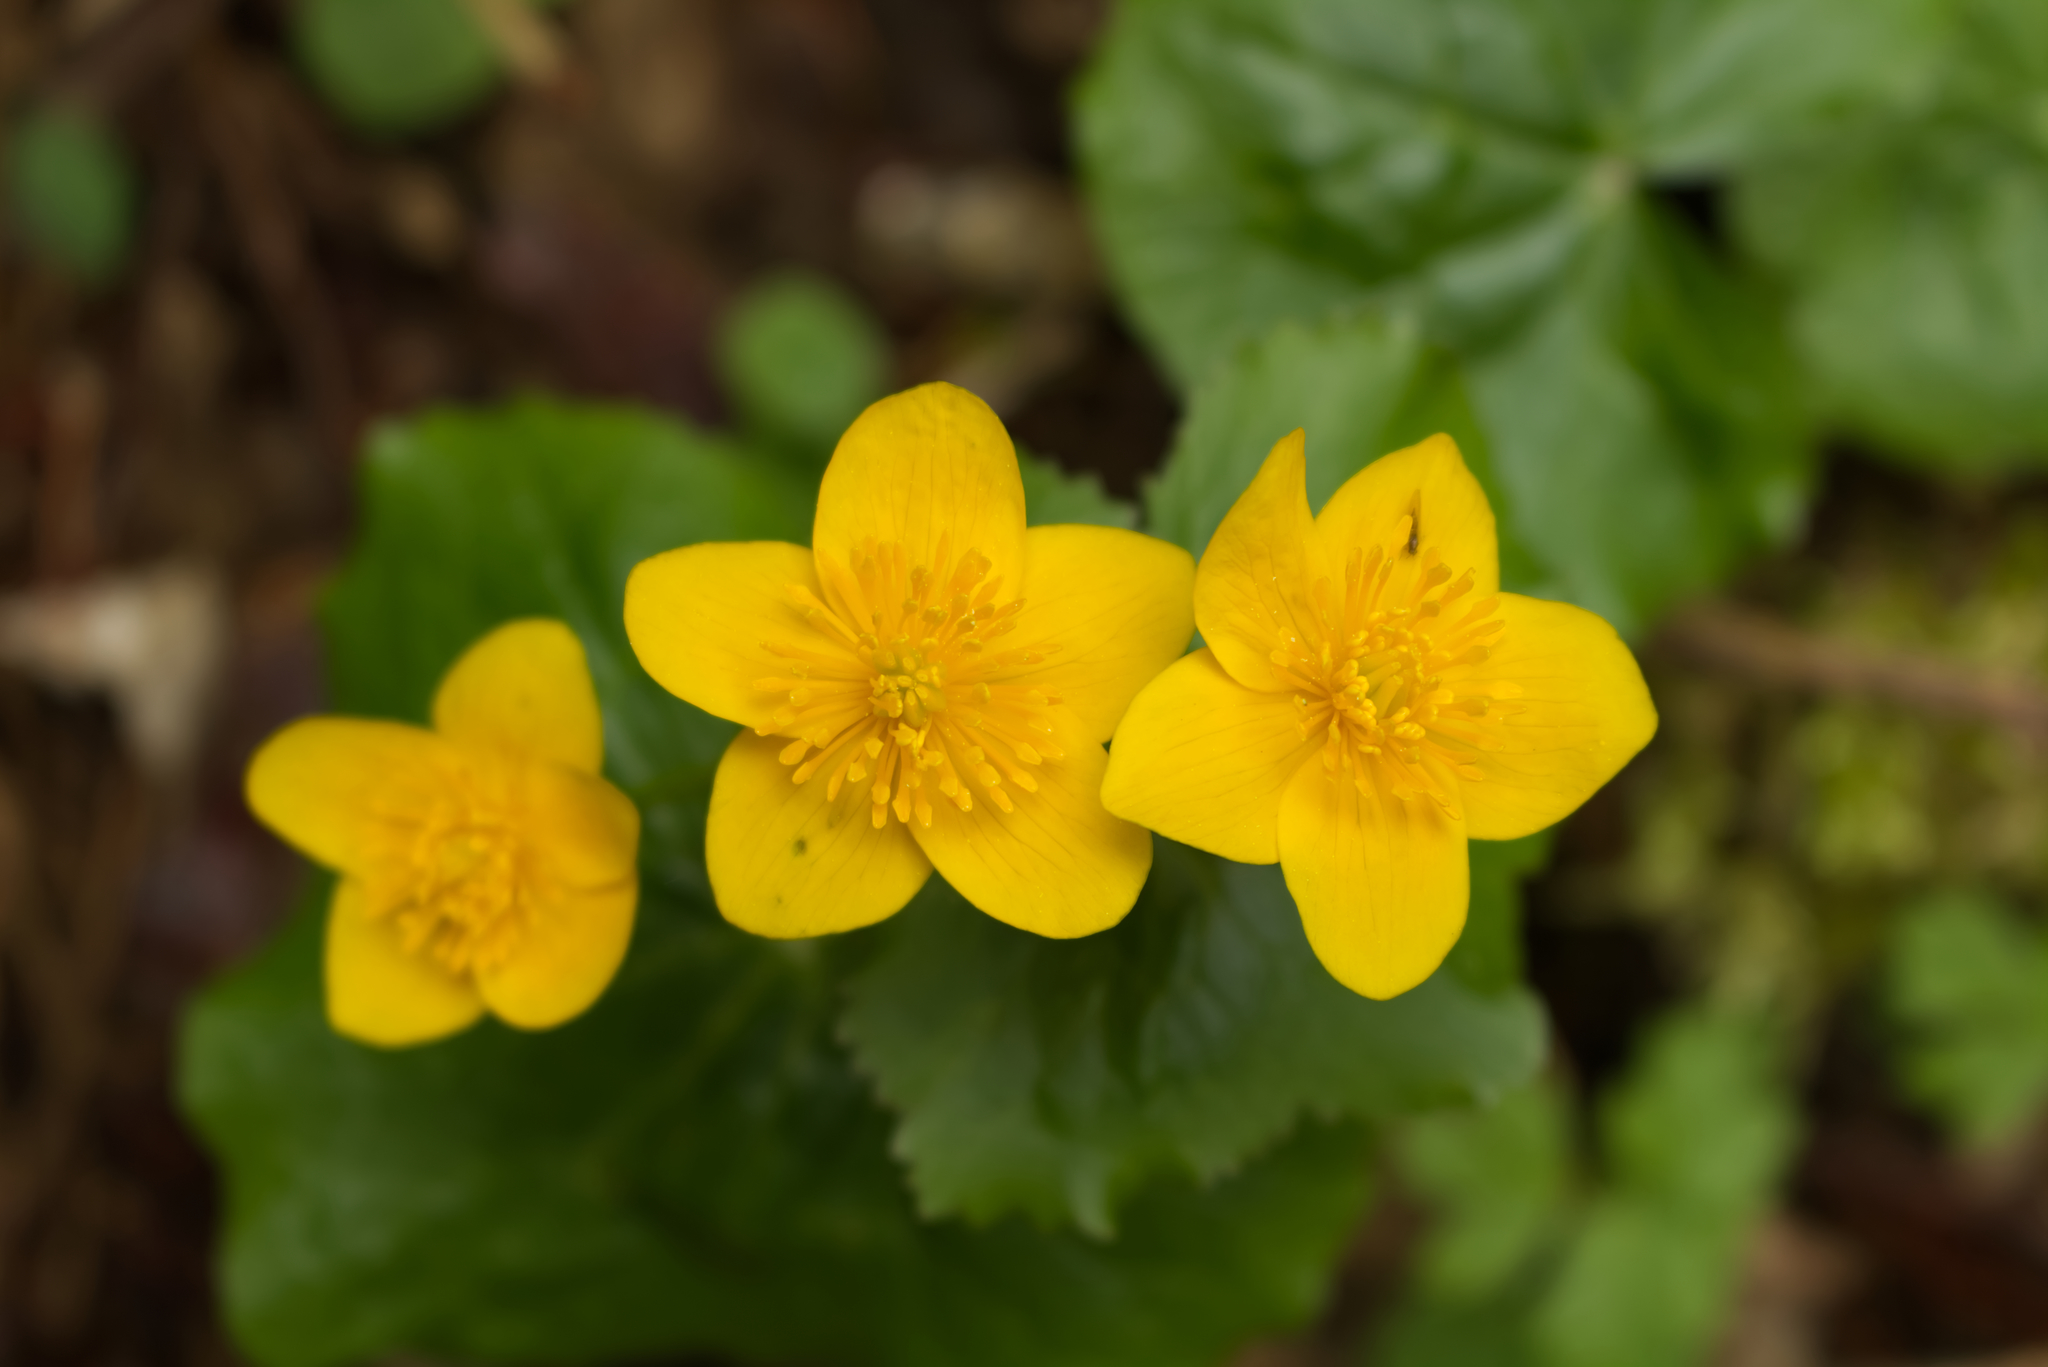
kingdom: Plantae
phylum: Tracheophyta
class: Magnoliopsida
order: Ranunculales
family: Ranunculaceae
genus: Caltha
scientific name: Caltha palustris
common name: Marsh marigold
